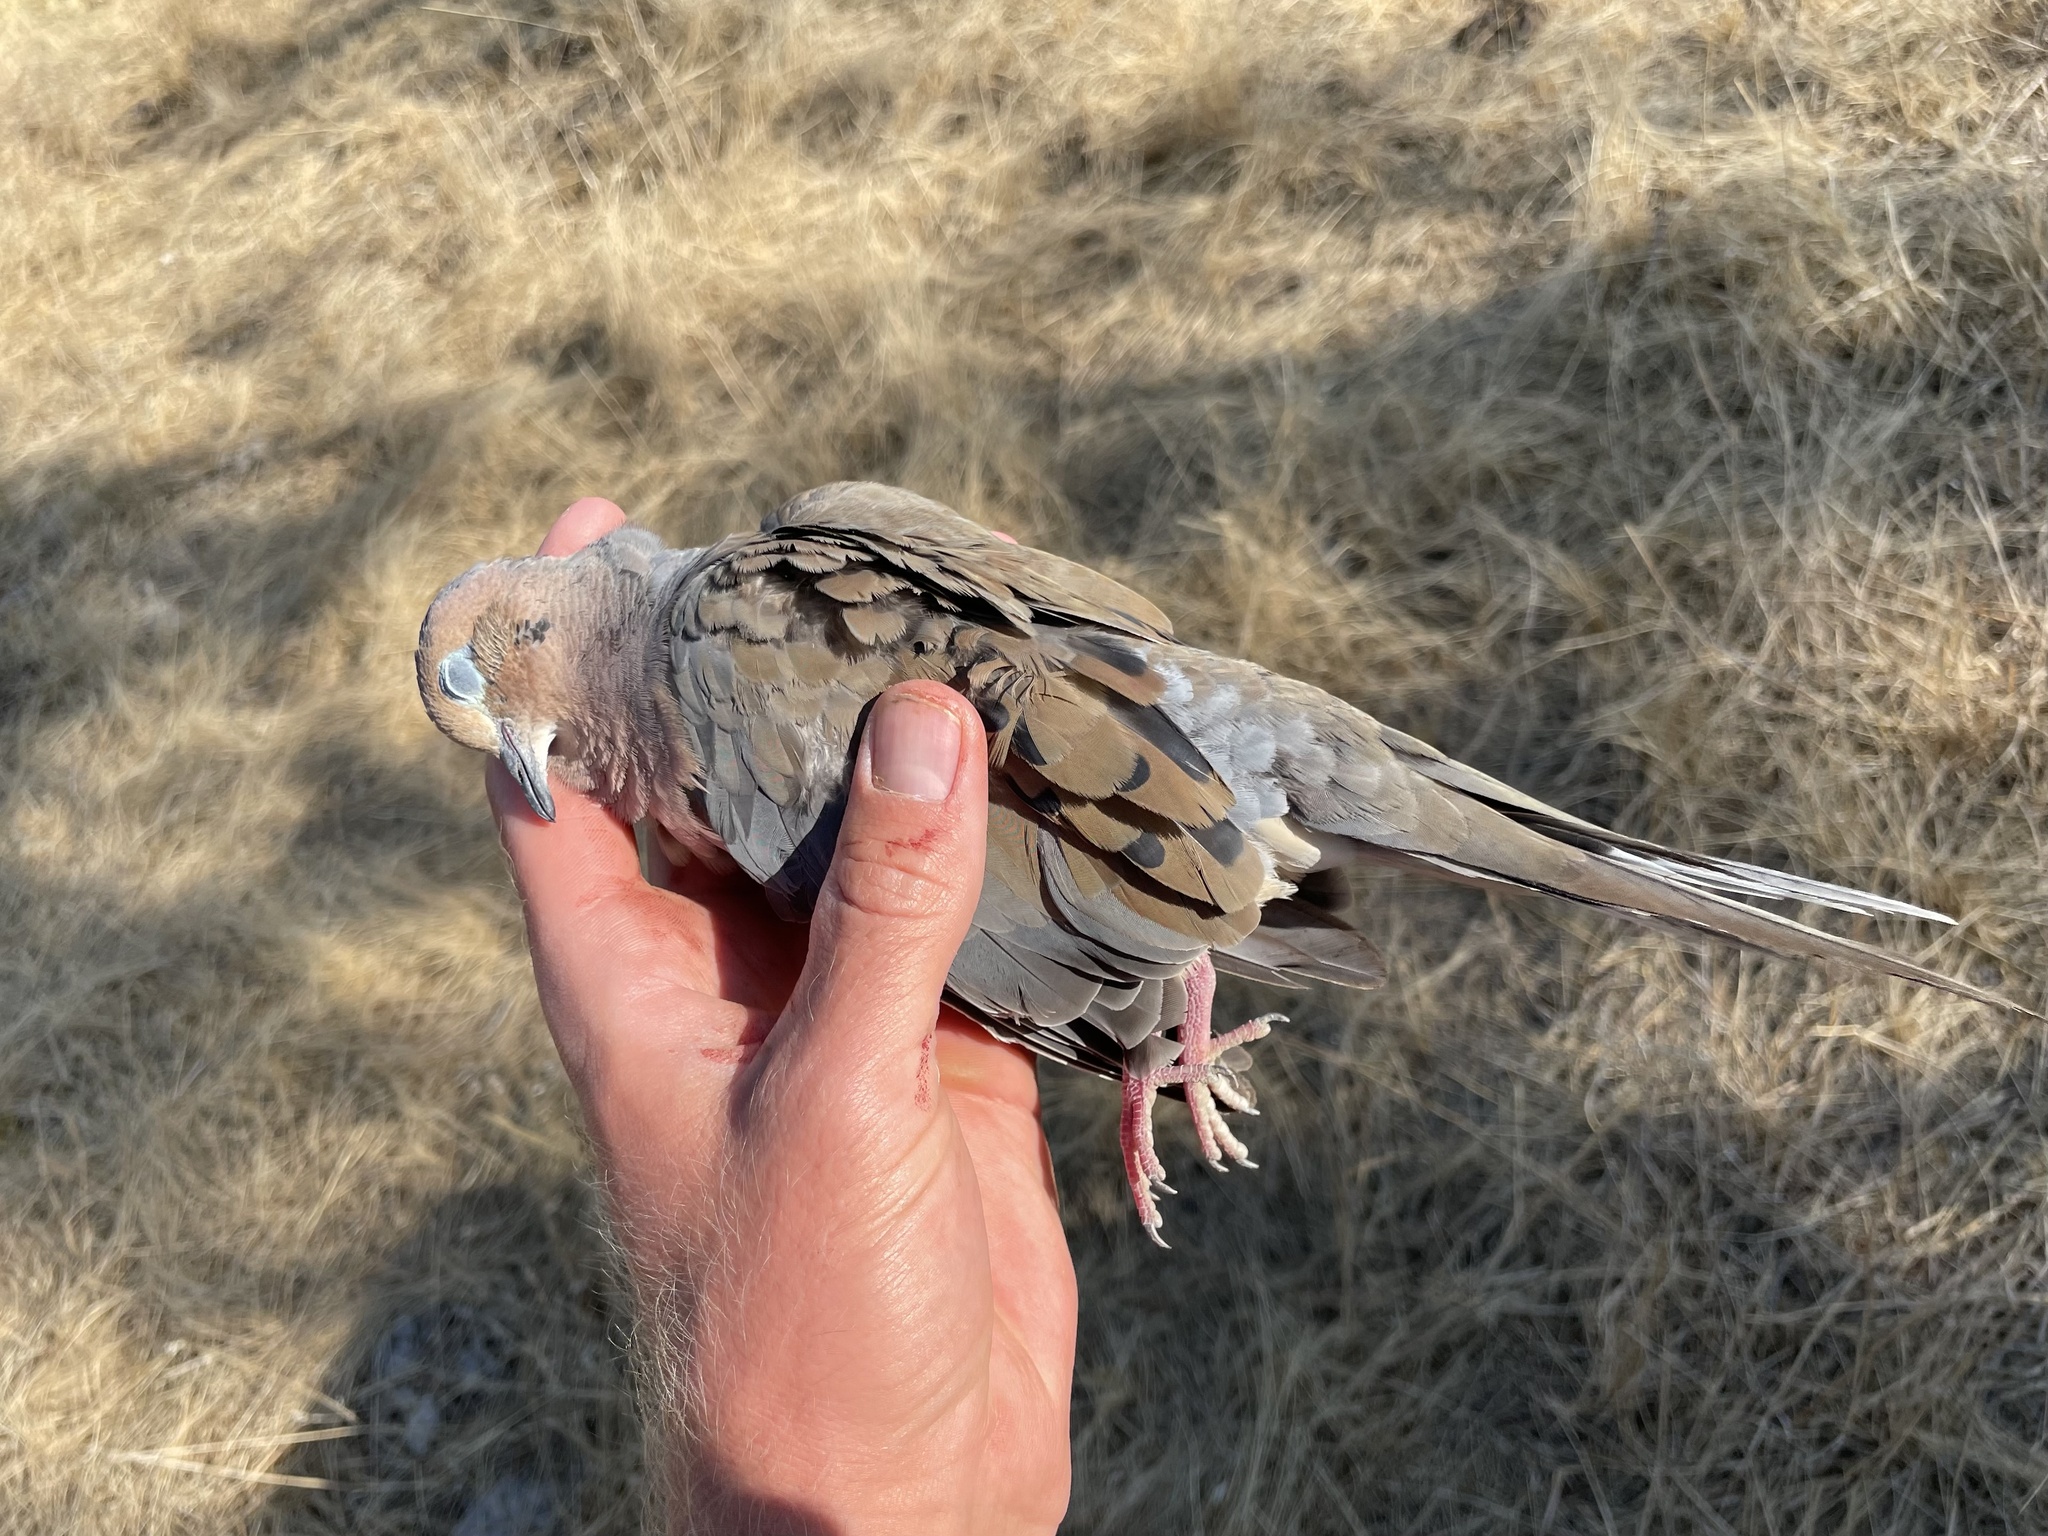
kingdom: Animalia
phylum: Chordata
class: Aves
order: Columbiformes
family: Columbidae
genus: Zenaida
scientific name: Zenaida macroura
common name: Mourning dove
